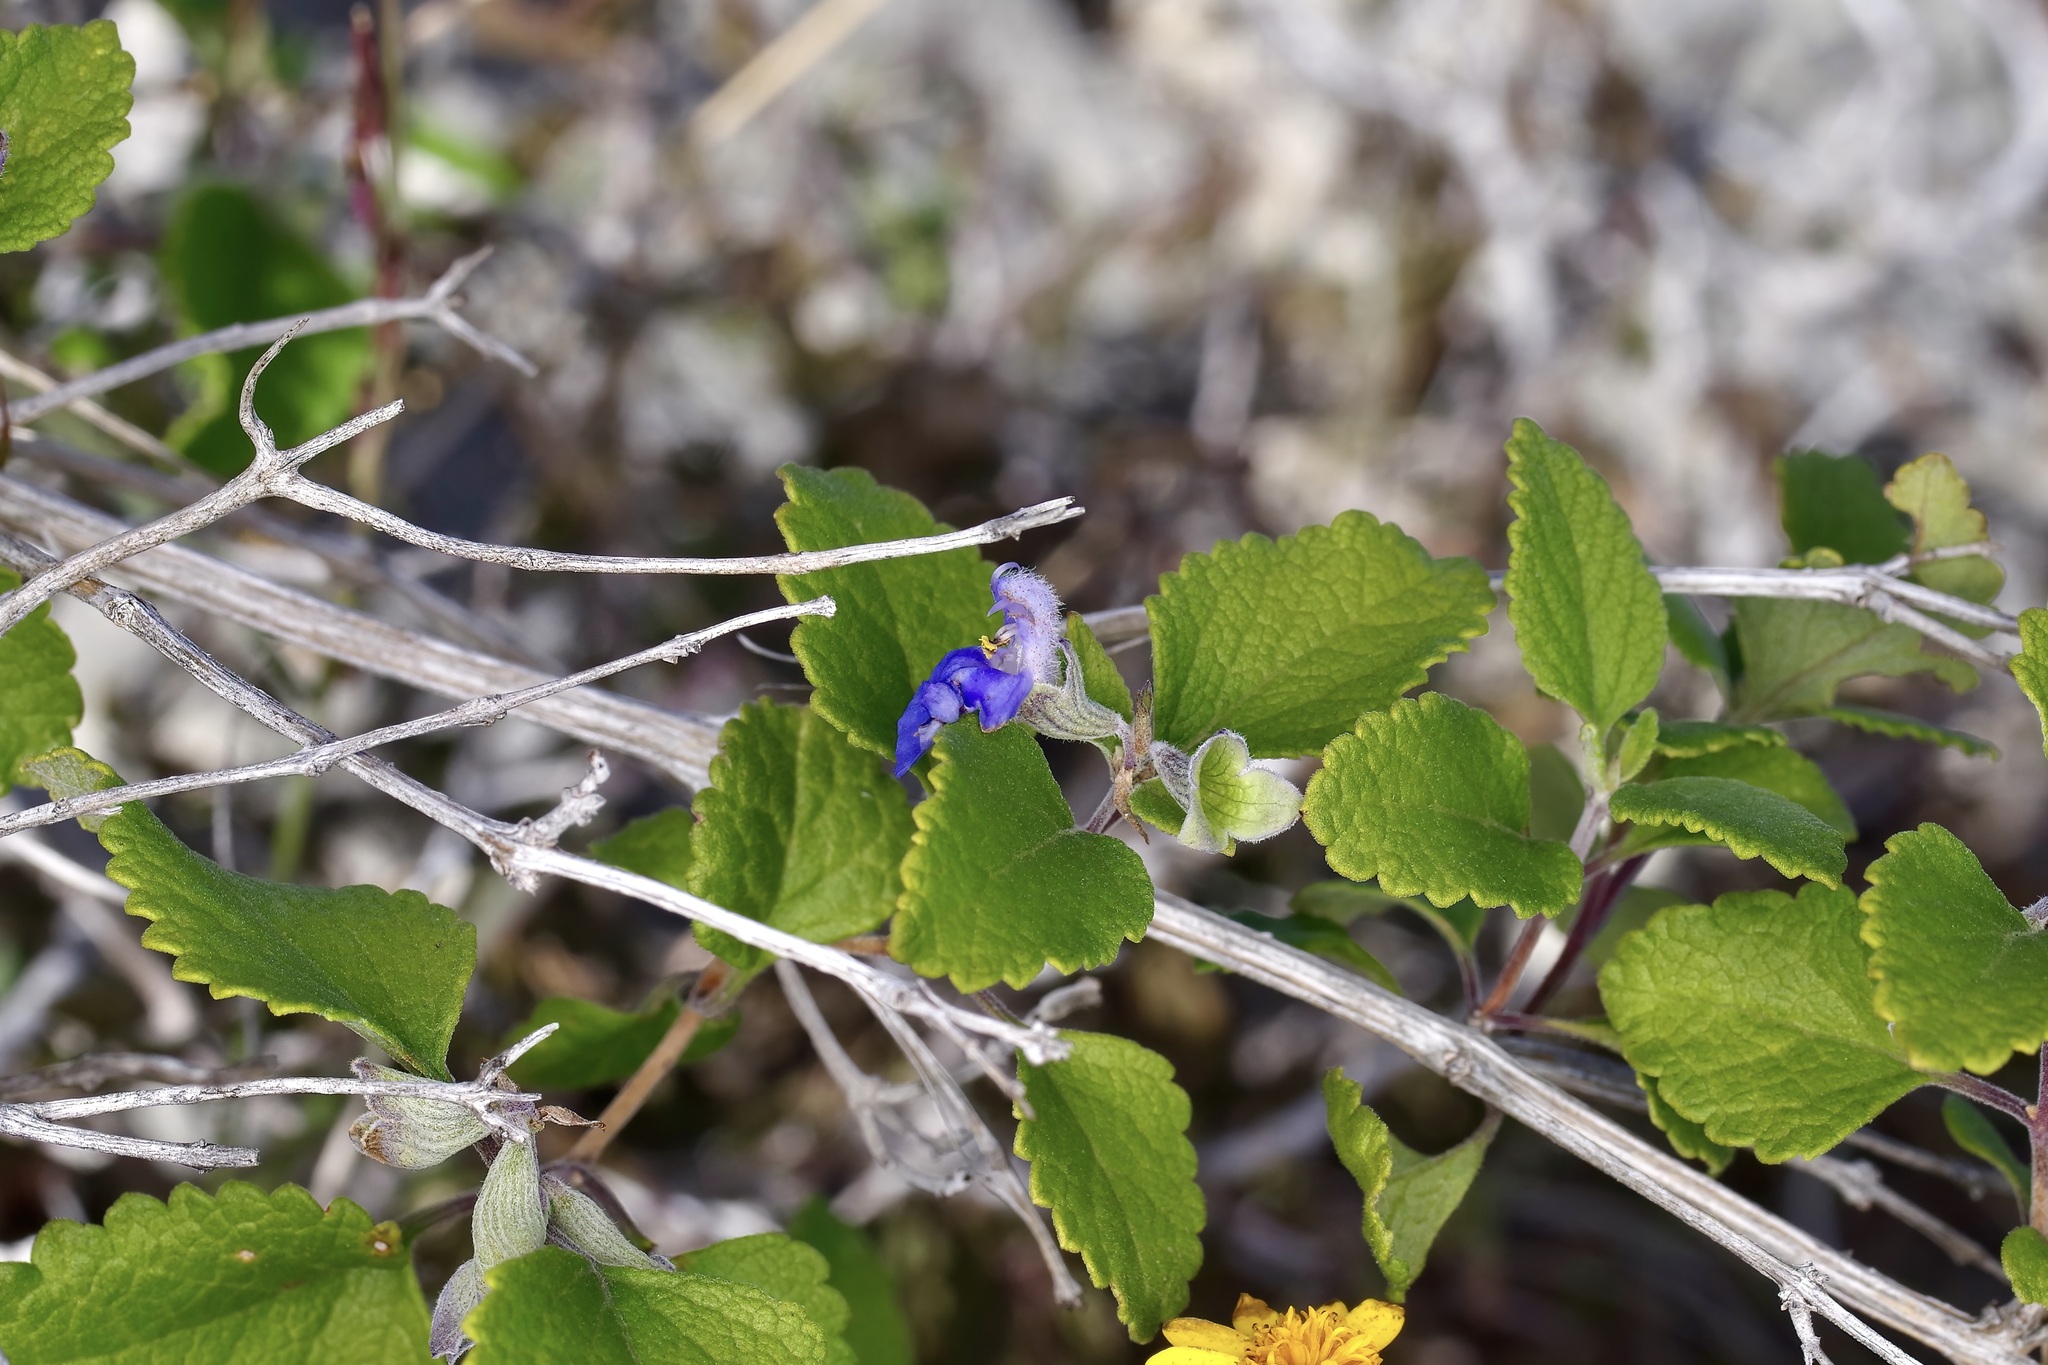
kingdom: Plantae
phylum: Tracheophyta
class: Magnoliopsida
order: Lamiales
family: Lamiaceae
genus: Salvia
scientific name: Salvia ballotiflora
